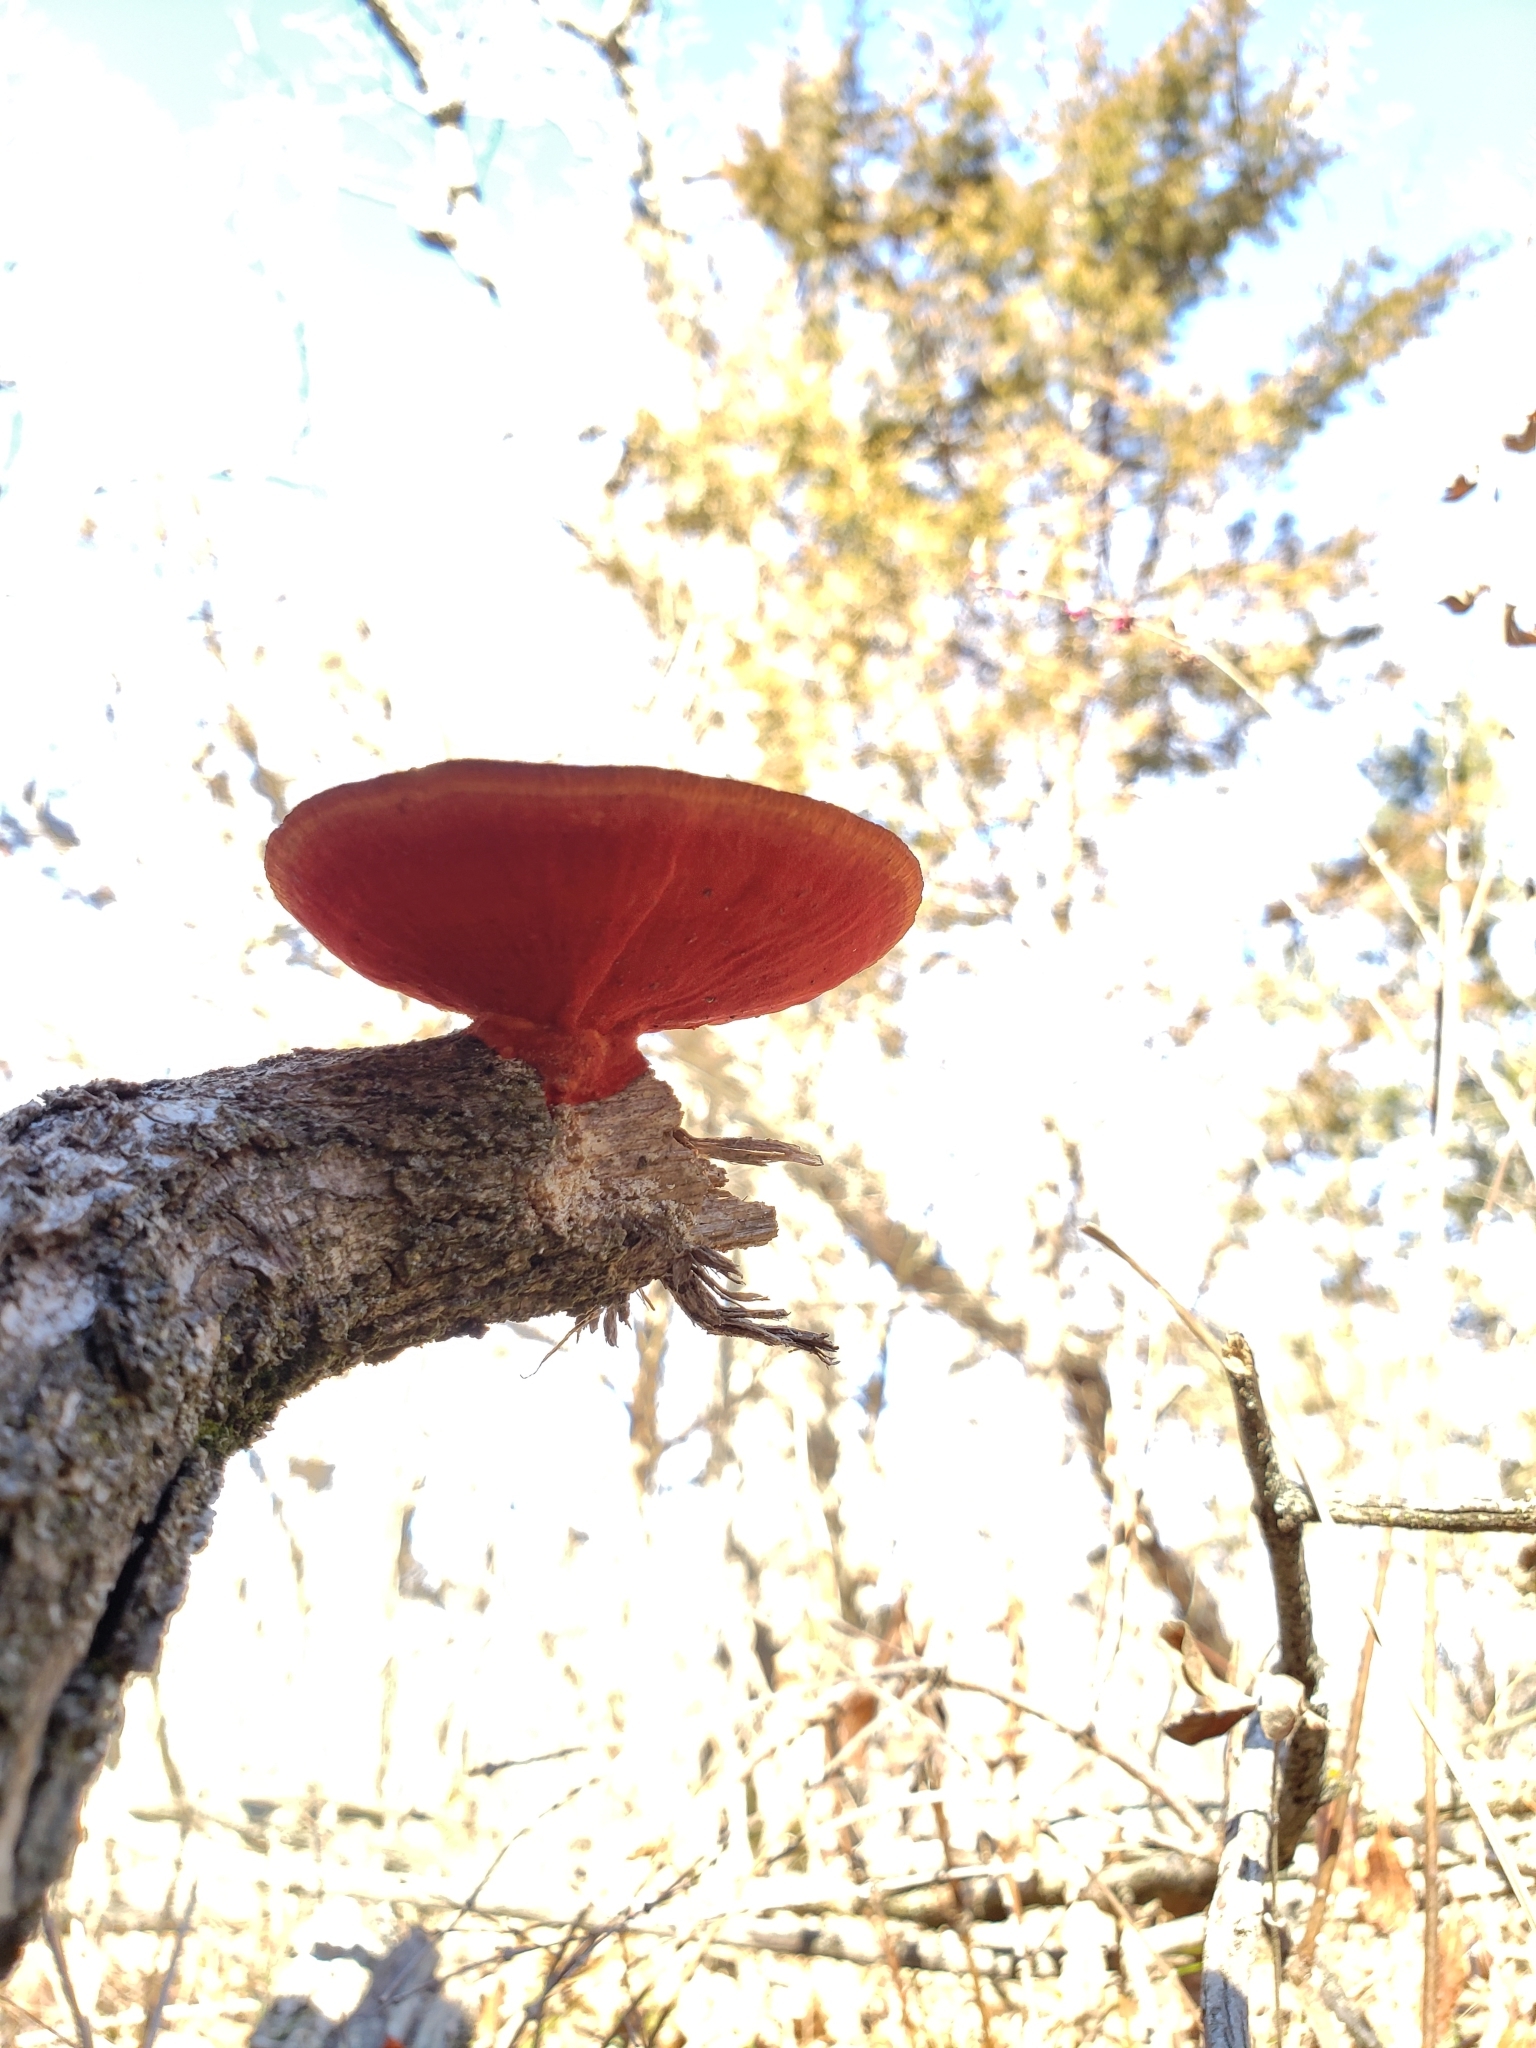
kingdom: Fungi
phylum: Basidiomycota
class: Agaricomycetes
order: Polyporales
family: Polyporaceae
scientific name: Polyporaceae
